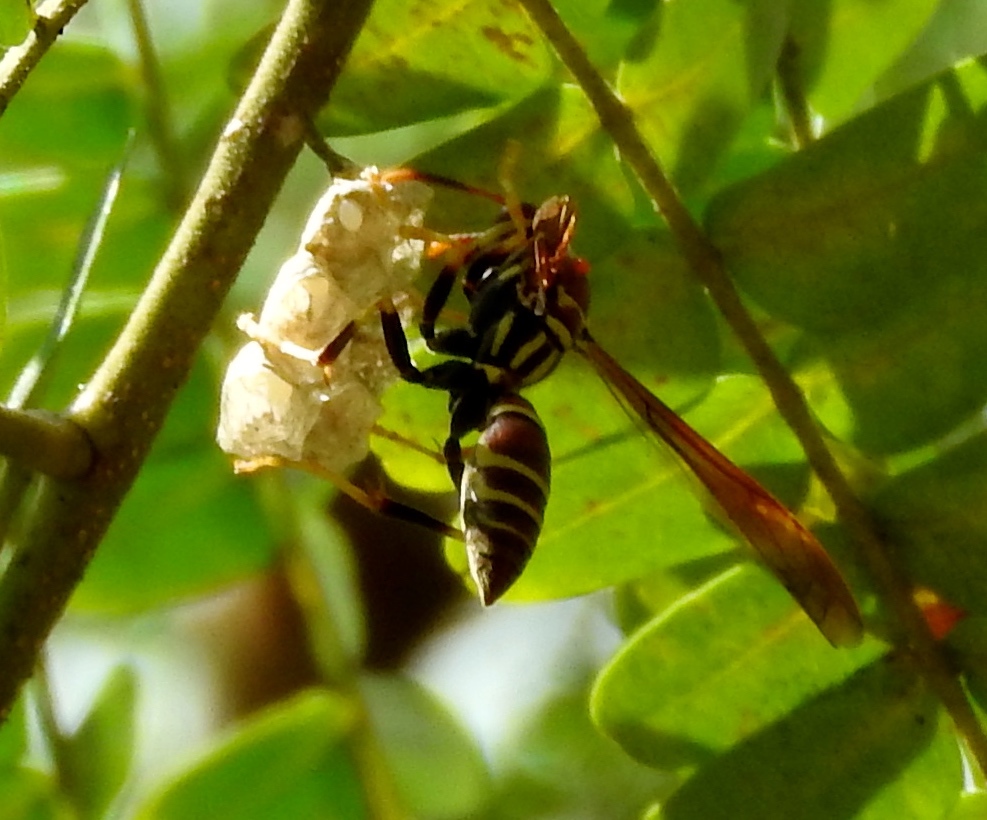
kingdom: Animalia
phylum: Arthropoda
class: Insecta
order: Hymenoptera
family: Eumenidae
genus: Polistes
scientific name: Polistes instabilis
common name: Unstable paper wasp
